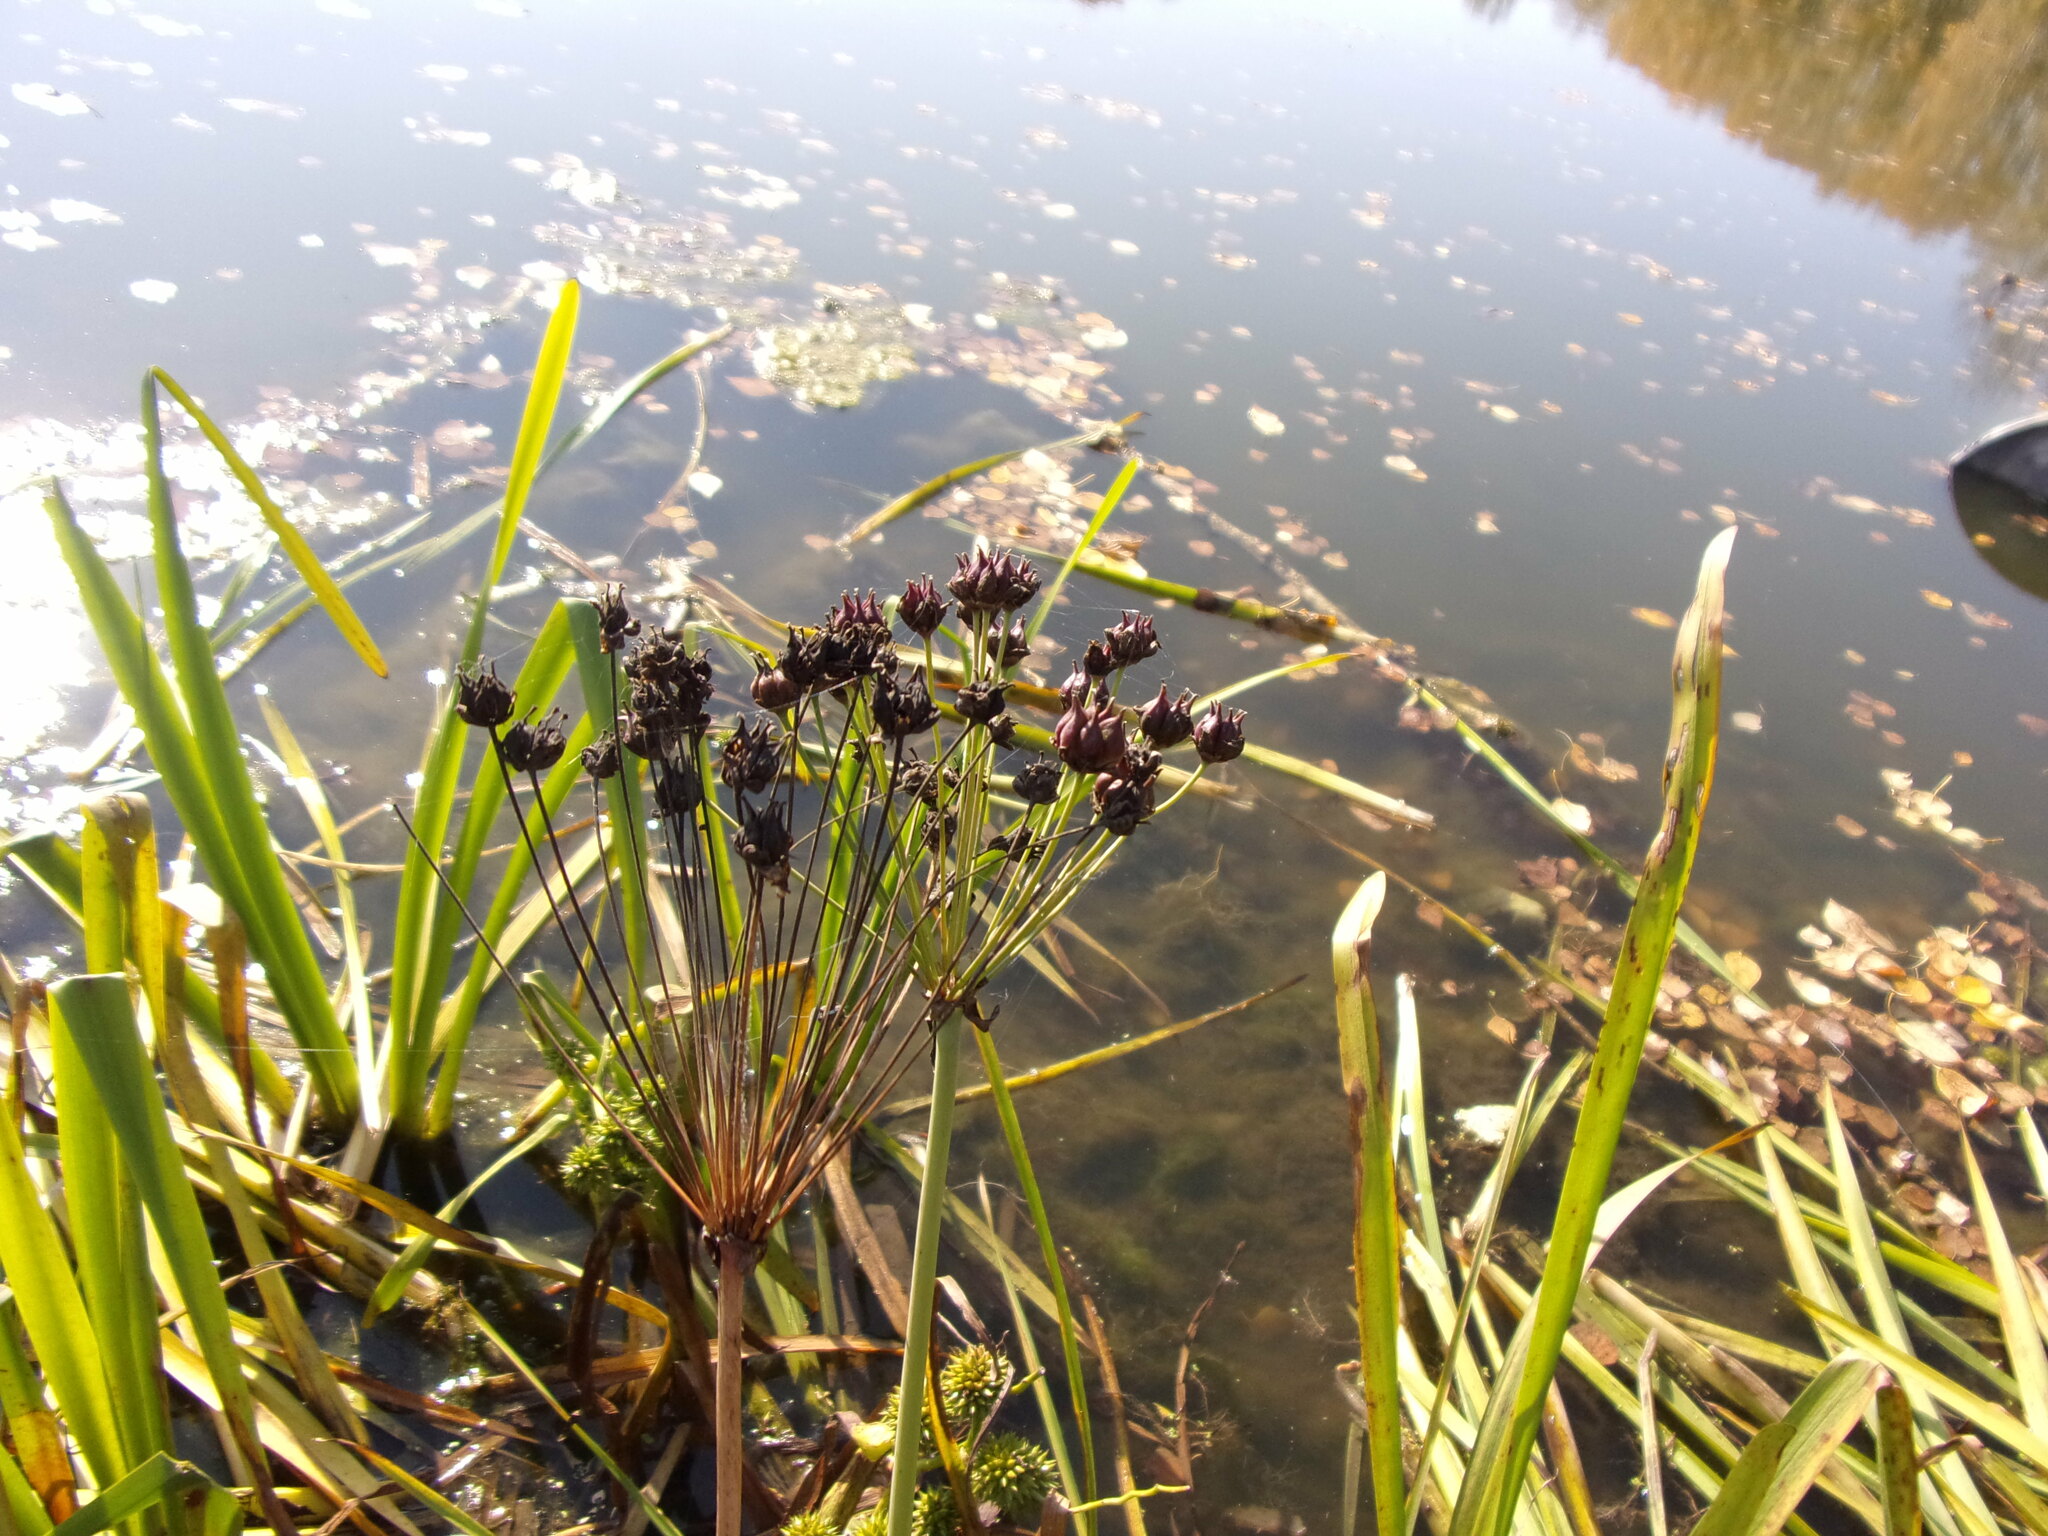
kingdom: Plantae
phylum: Tracheophyta
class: Liliopsida
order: Alismatales
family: Butomaceae
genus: Butomus
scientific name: Butomus umbellatus
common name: Flowering-rush
